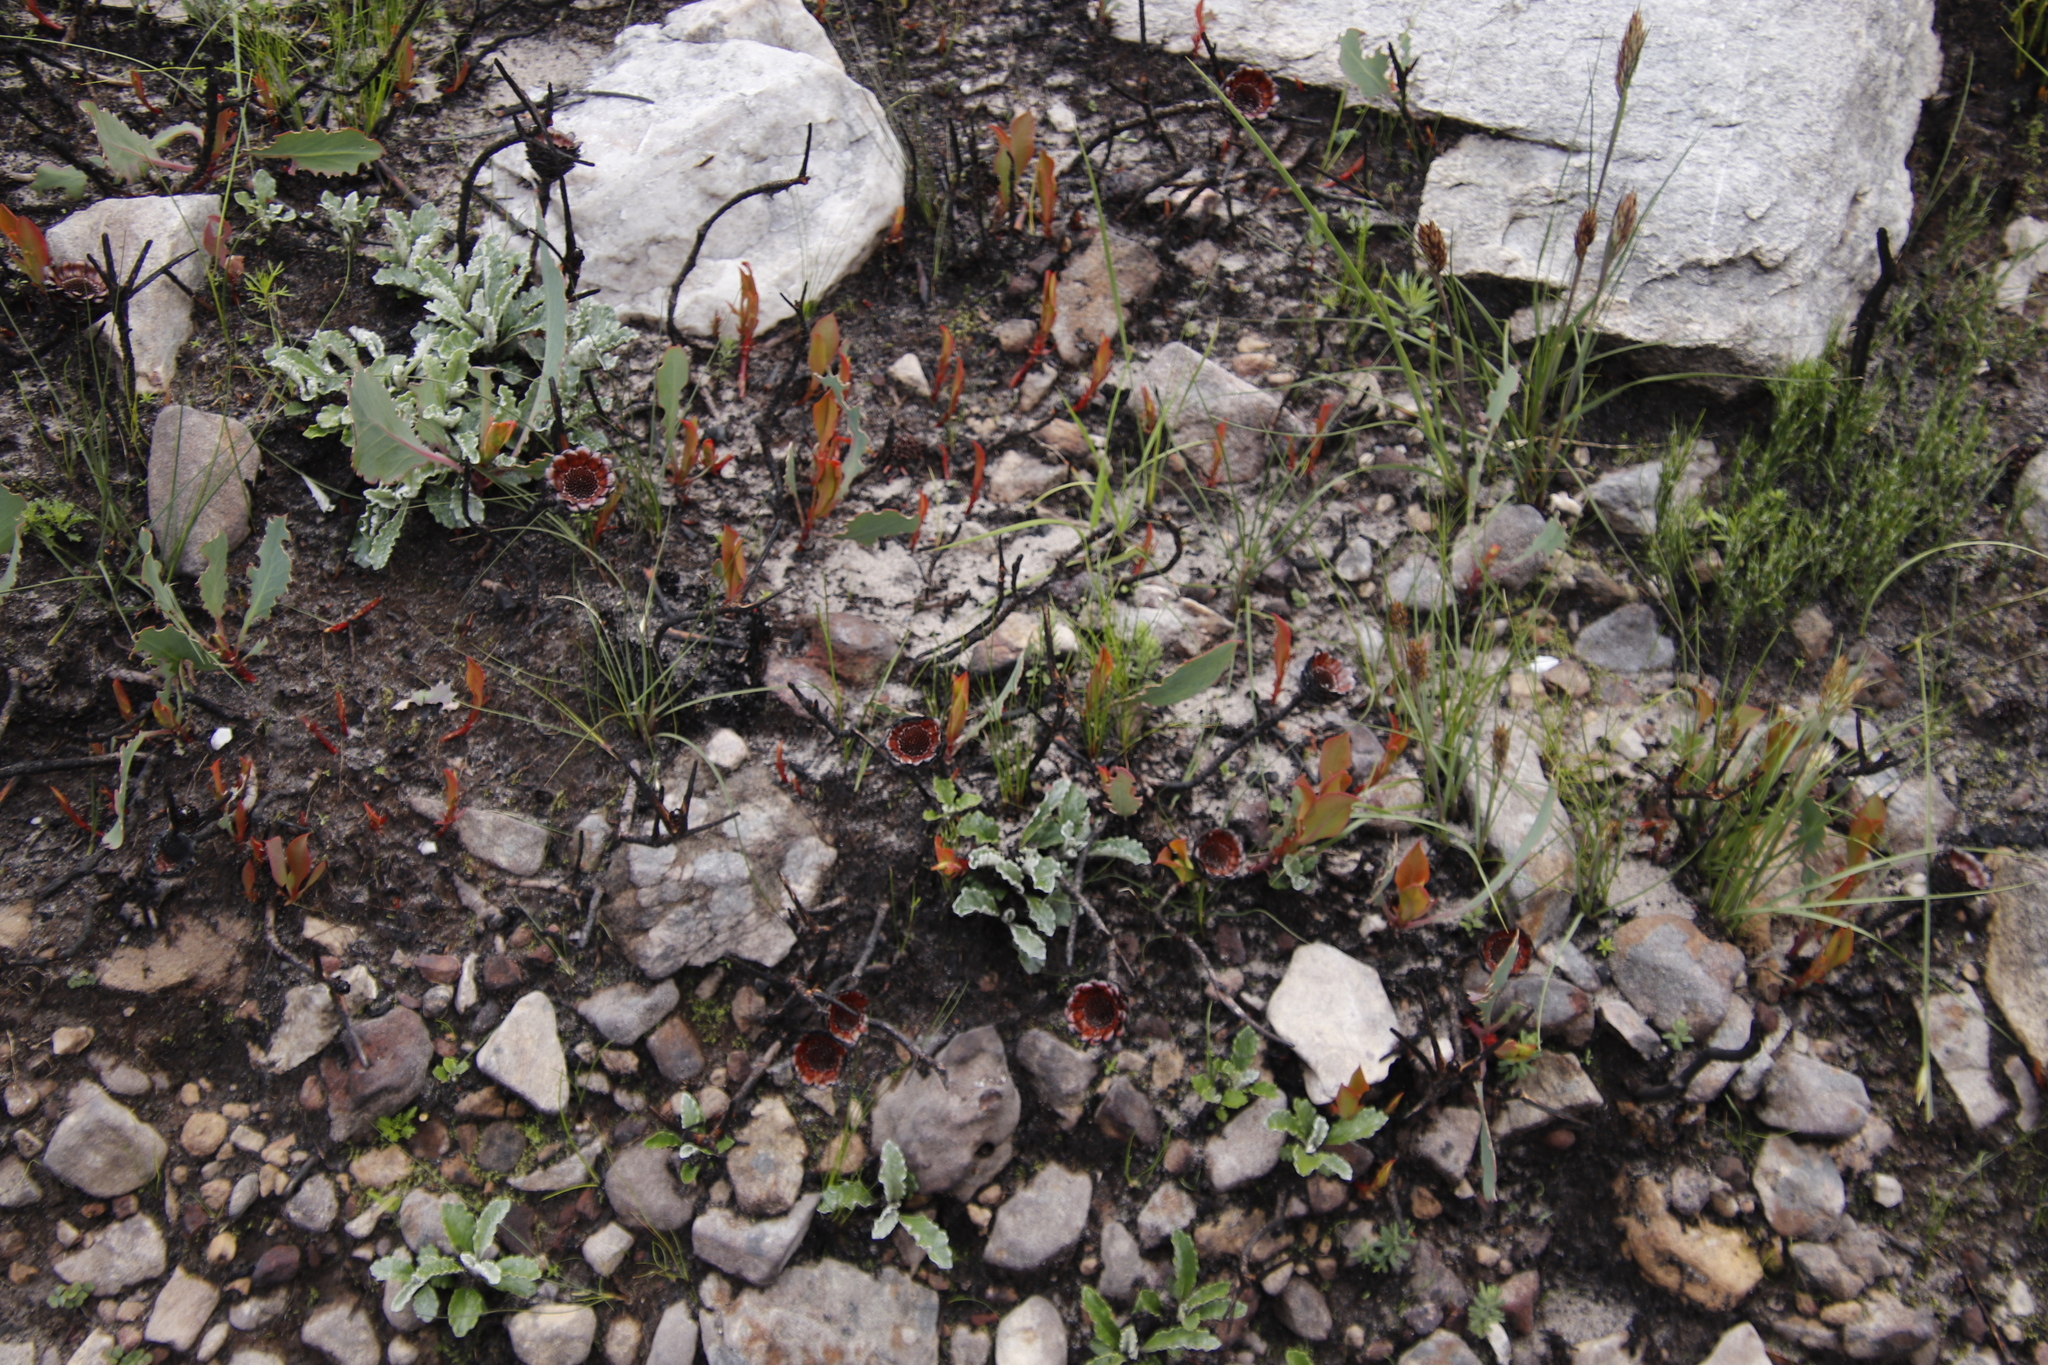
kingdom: Plantae
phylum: Tracheophyta
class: Magnoliopsida
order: Proteales
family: Proteaceae
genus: Protea
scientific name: Protea acaulos
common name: Common ground sugarbush
